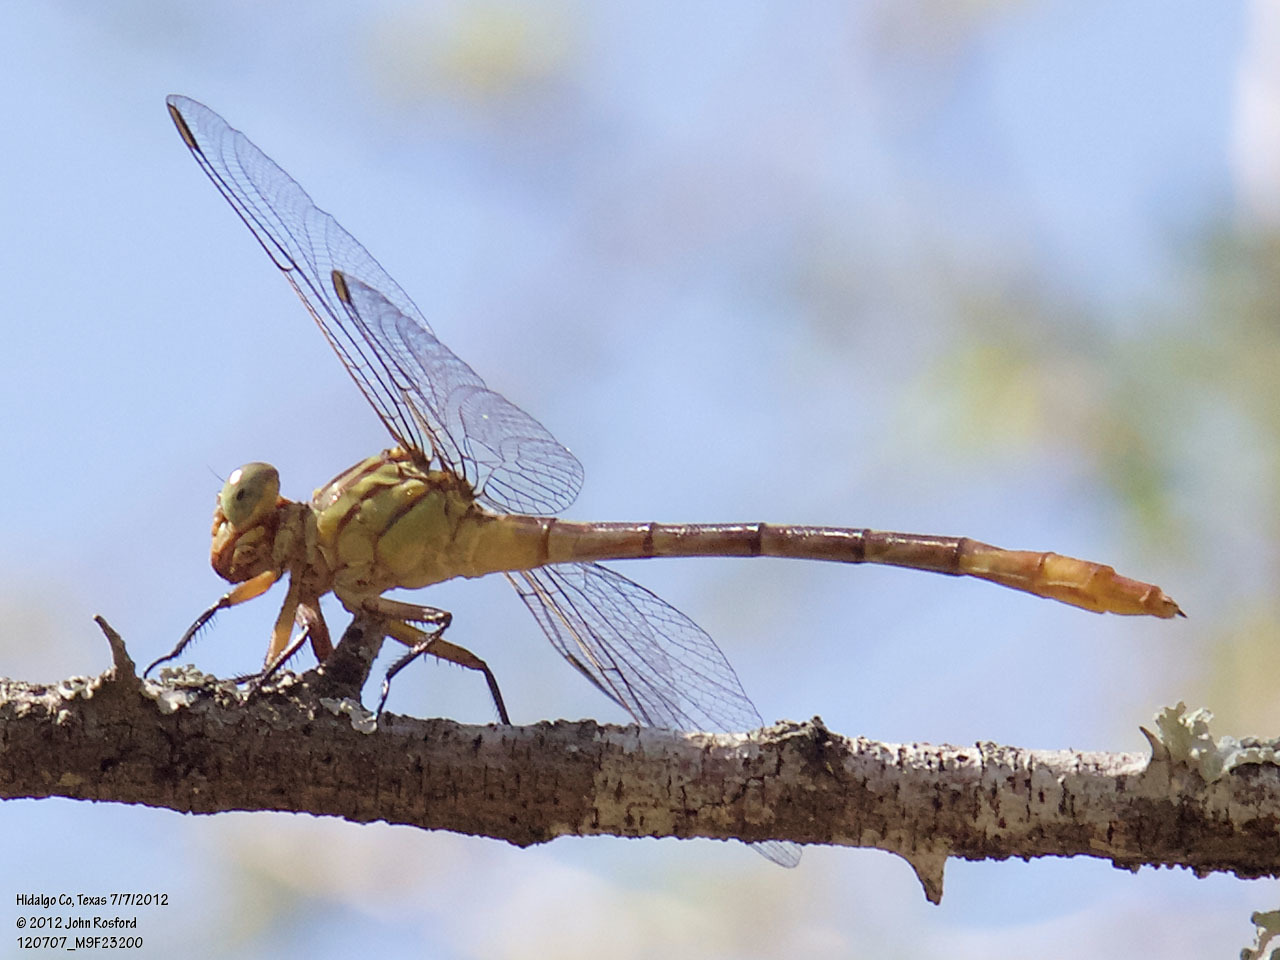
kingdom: Animalia
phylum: Arthropoda
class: Insecta
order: Odonata
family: Gomphidae
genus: Stylurus
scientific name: Stylurus plagiatus
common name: Russet-tipped clubtail
